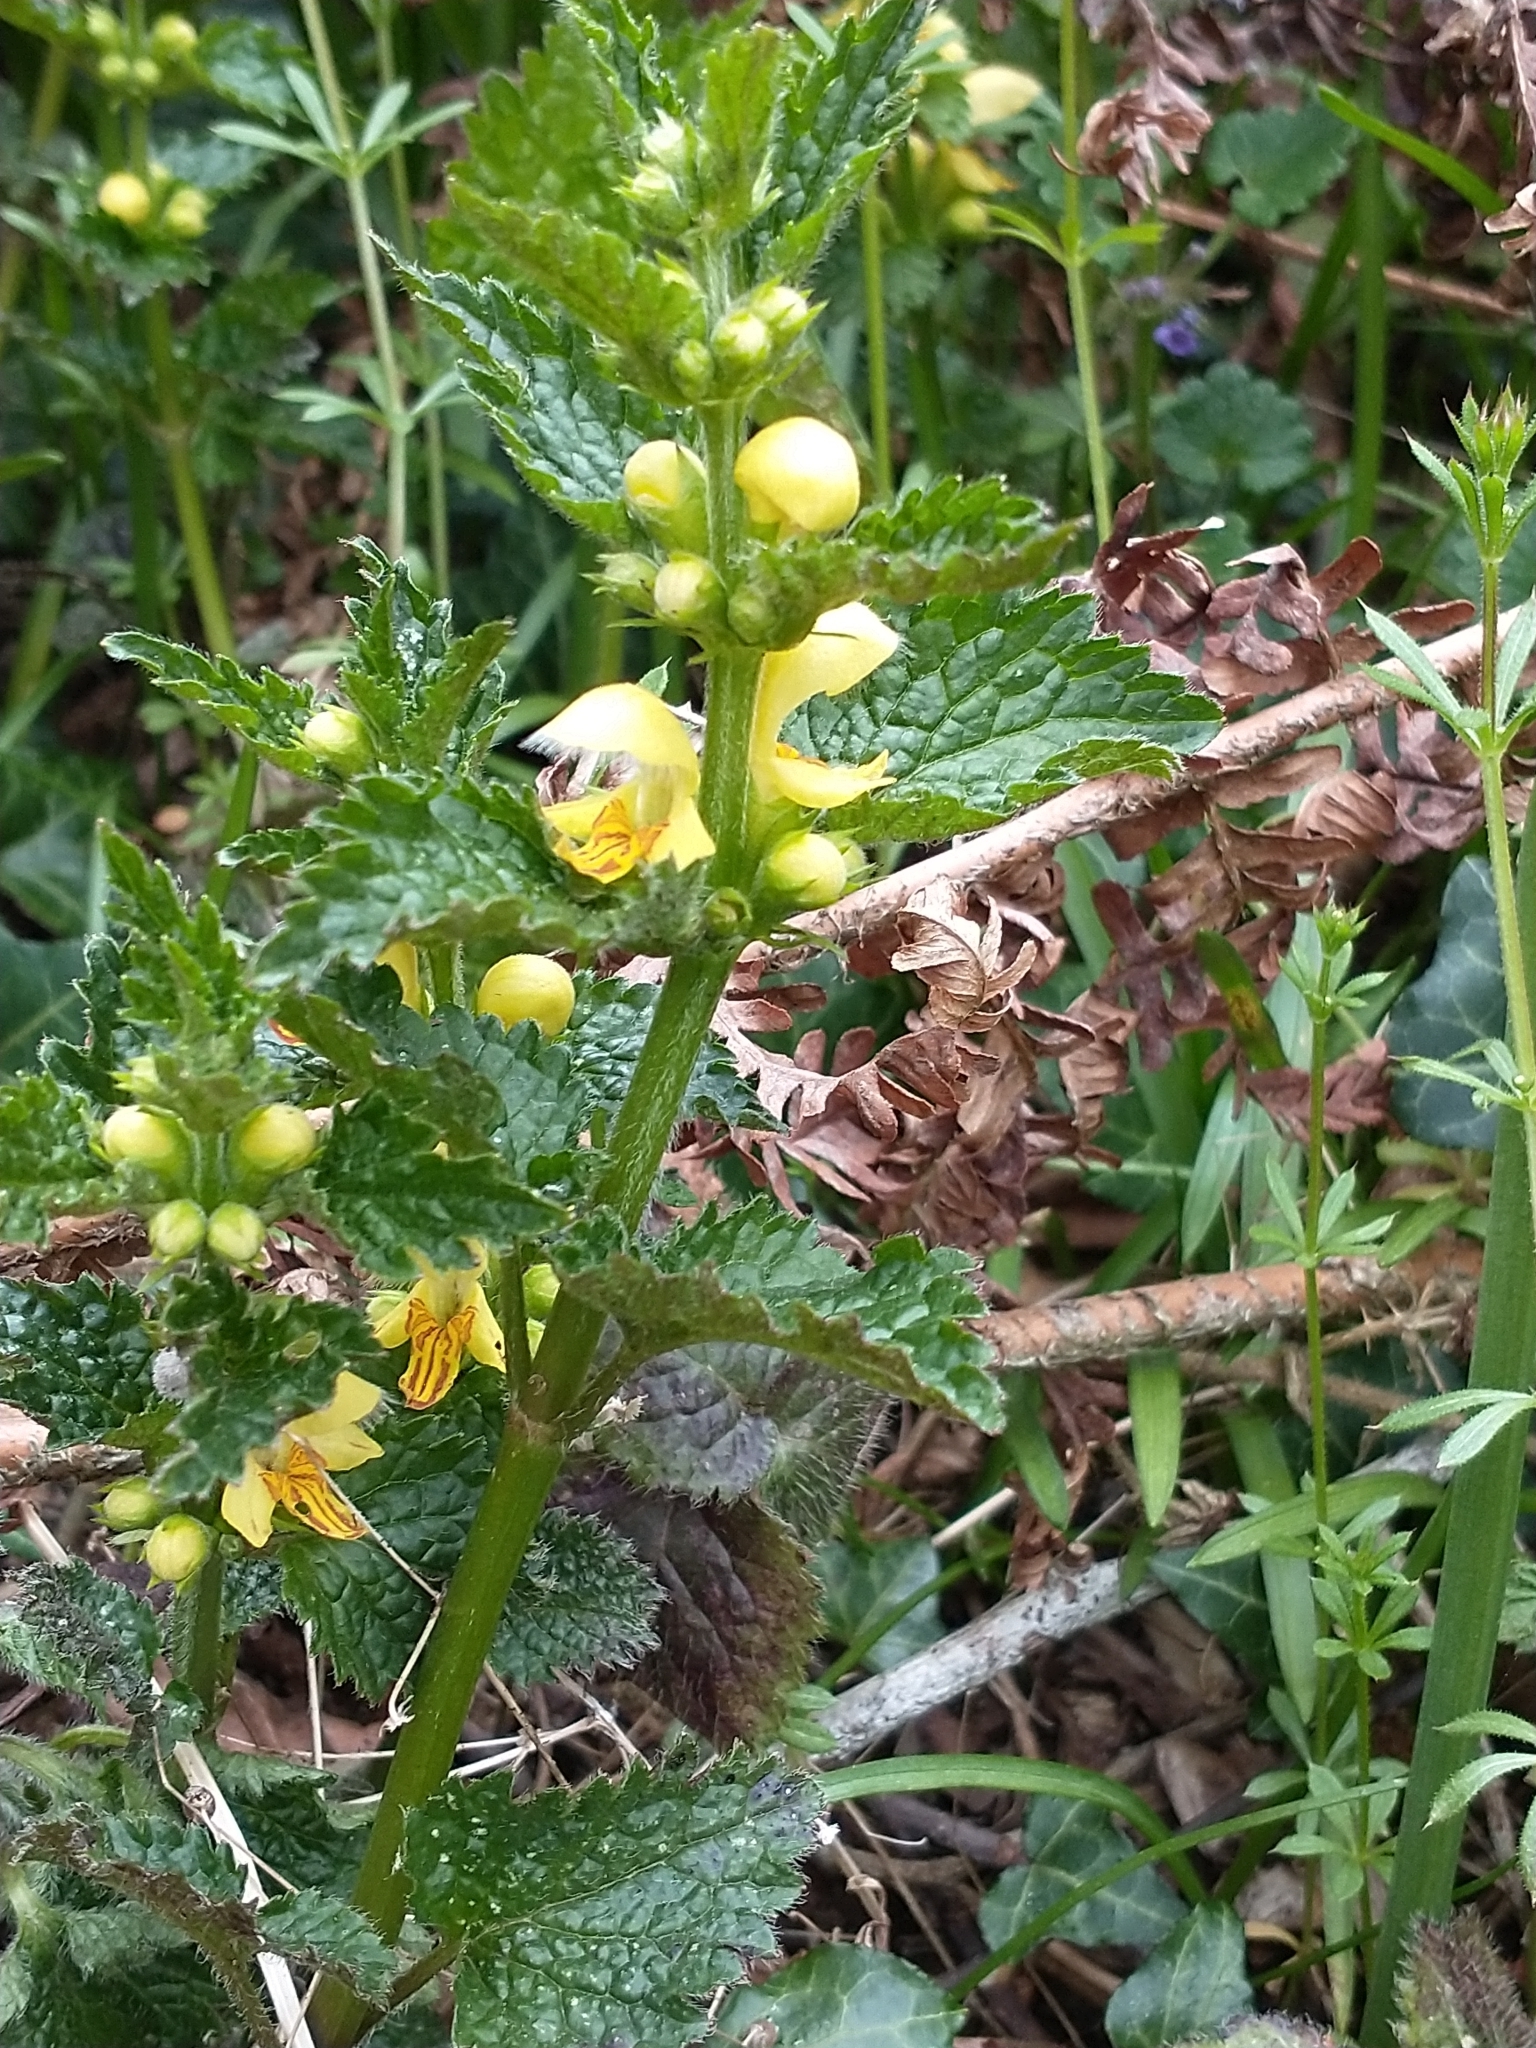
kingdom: Plantae
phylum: Tracheophyta
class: Magnoliopsida
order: Lamiales
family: Lamiaceae
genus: Lamium
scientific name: Lamium galeobdolon
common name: Yellow archangel
